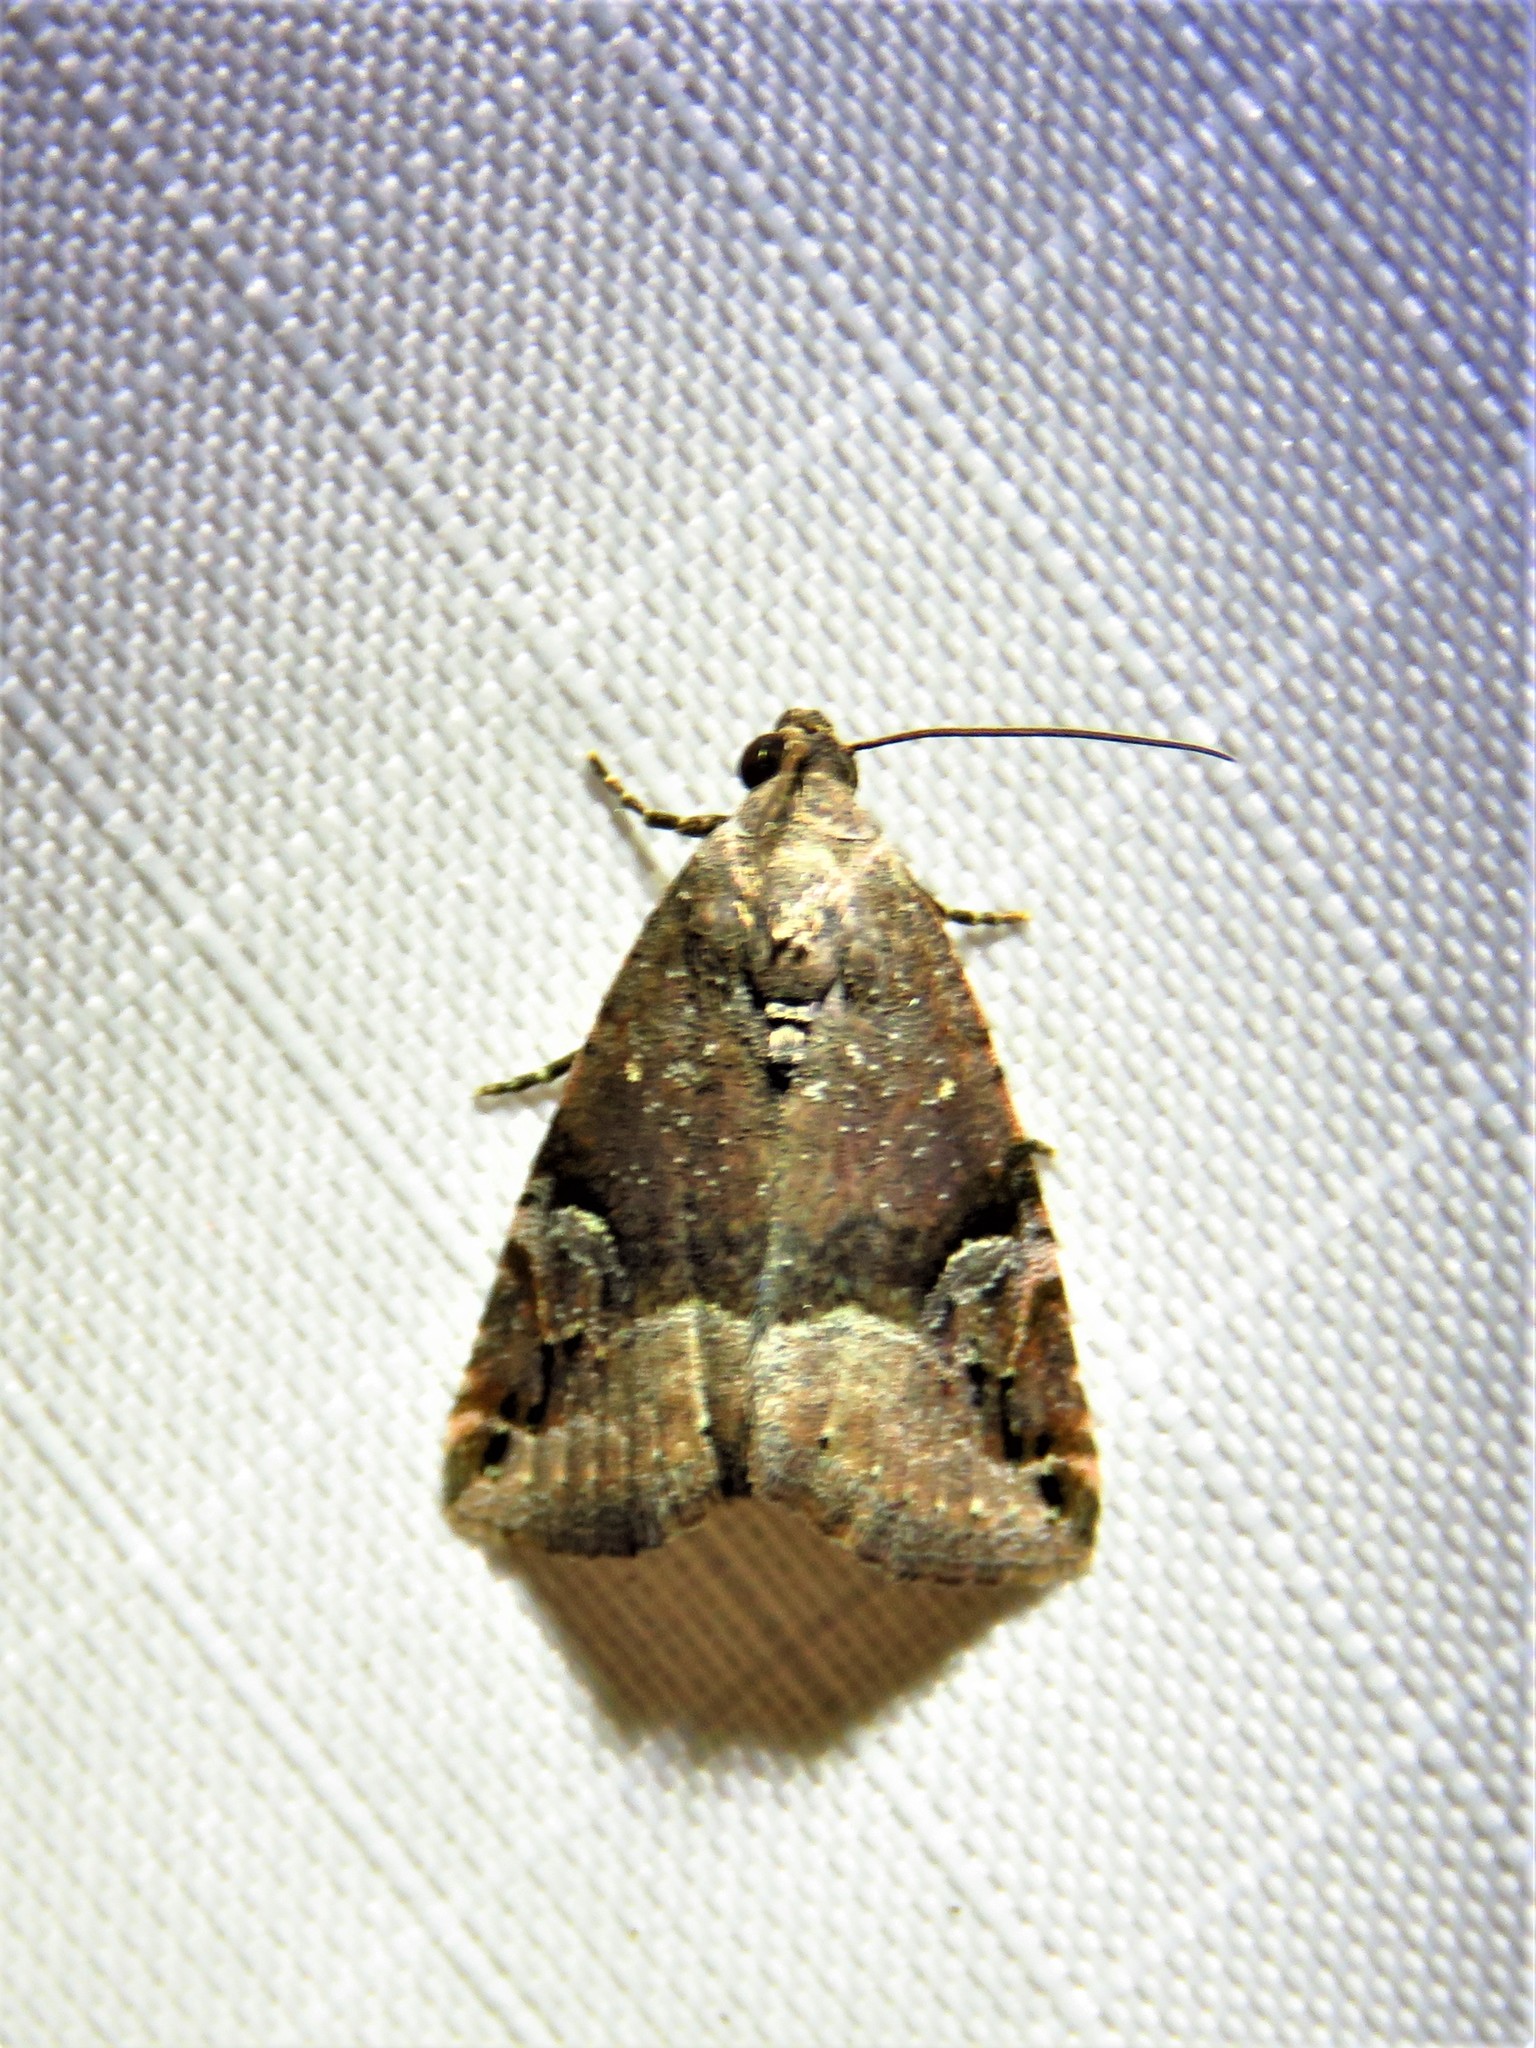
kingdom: Animalia
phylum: Arthropoda
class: Insecta
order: Lepidoptera
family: Noctuidae
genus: Ozarba
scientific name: Ozarba aeria
